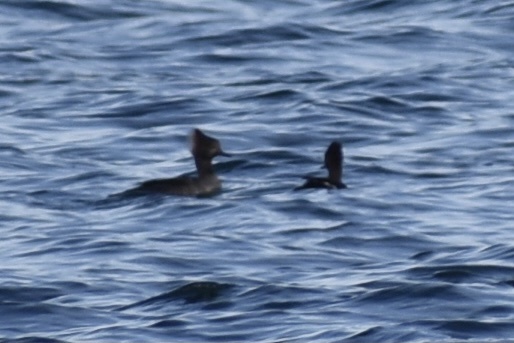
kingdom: Animalia
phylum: Chordata
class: Aves
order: Anseriformes
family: Anatidae
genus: Lophodytes
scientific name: Lophodytes cucullatus
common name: Hooded merganser
